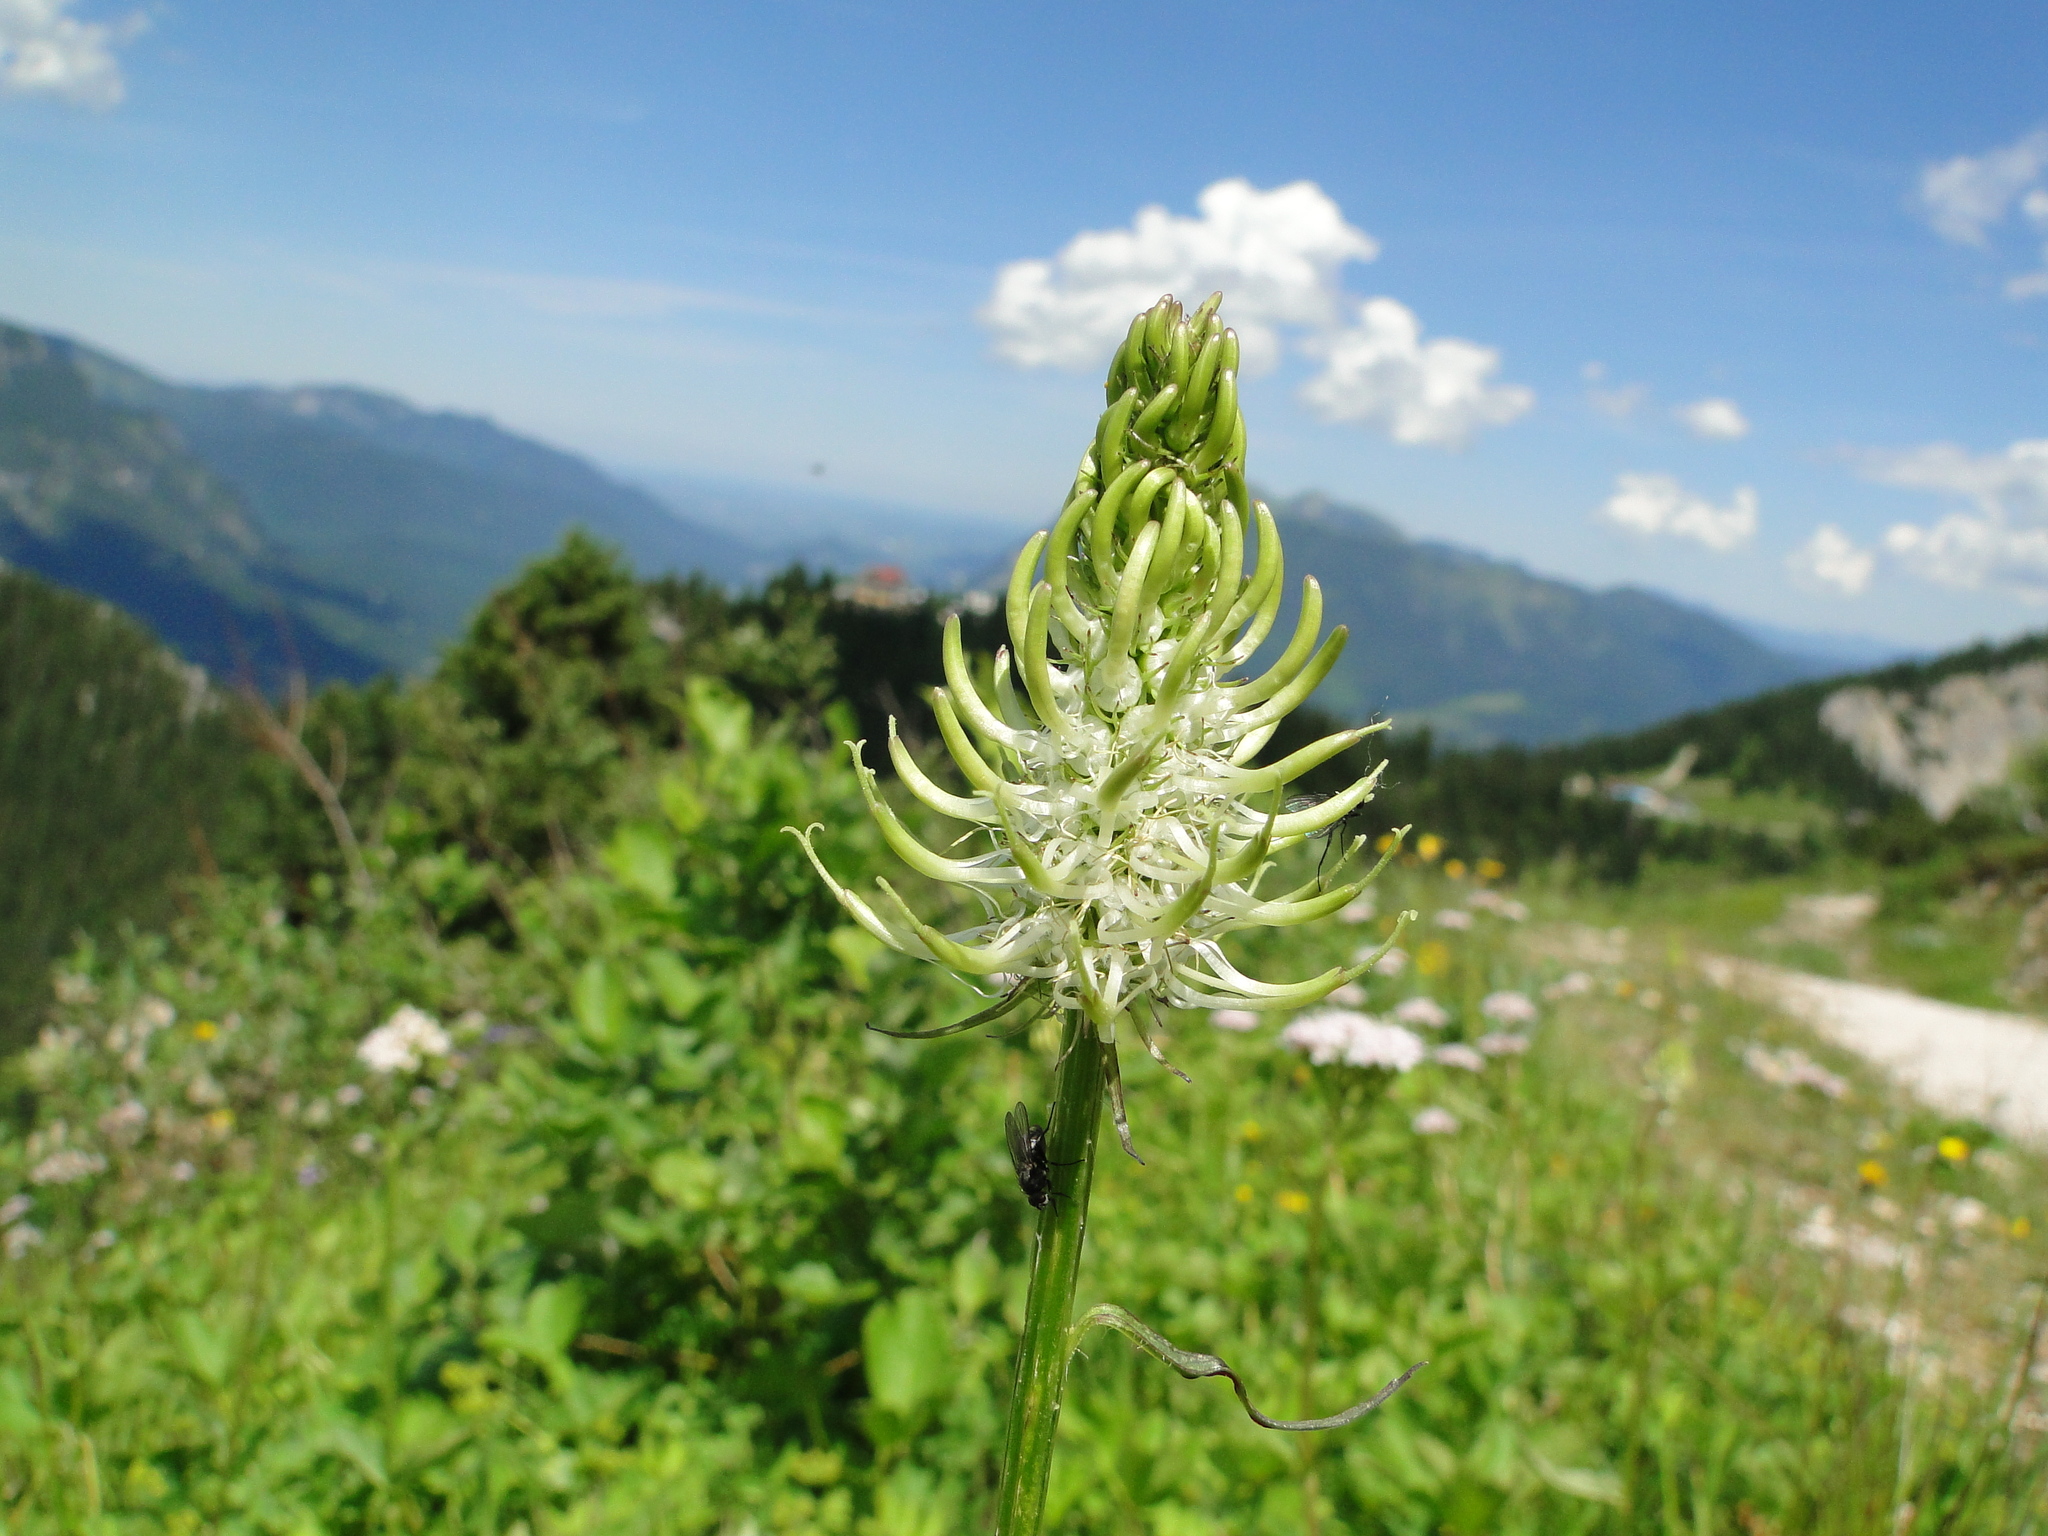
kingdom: Plantae
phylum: Tracheophyta
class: Magnoliopsida
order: Asterales
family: Campanulaceae
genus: Phyteuma
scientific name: Phyteuma spicatum
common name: Spiked rampion
